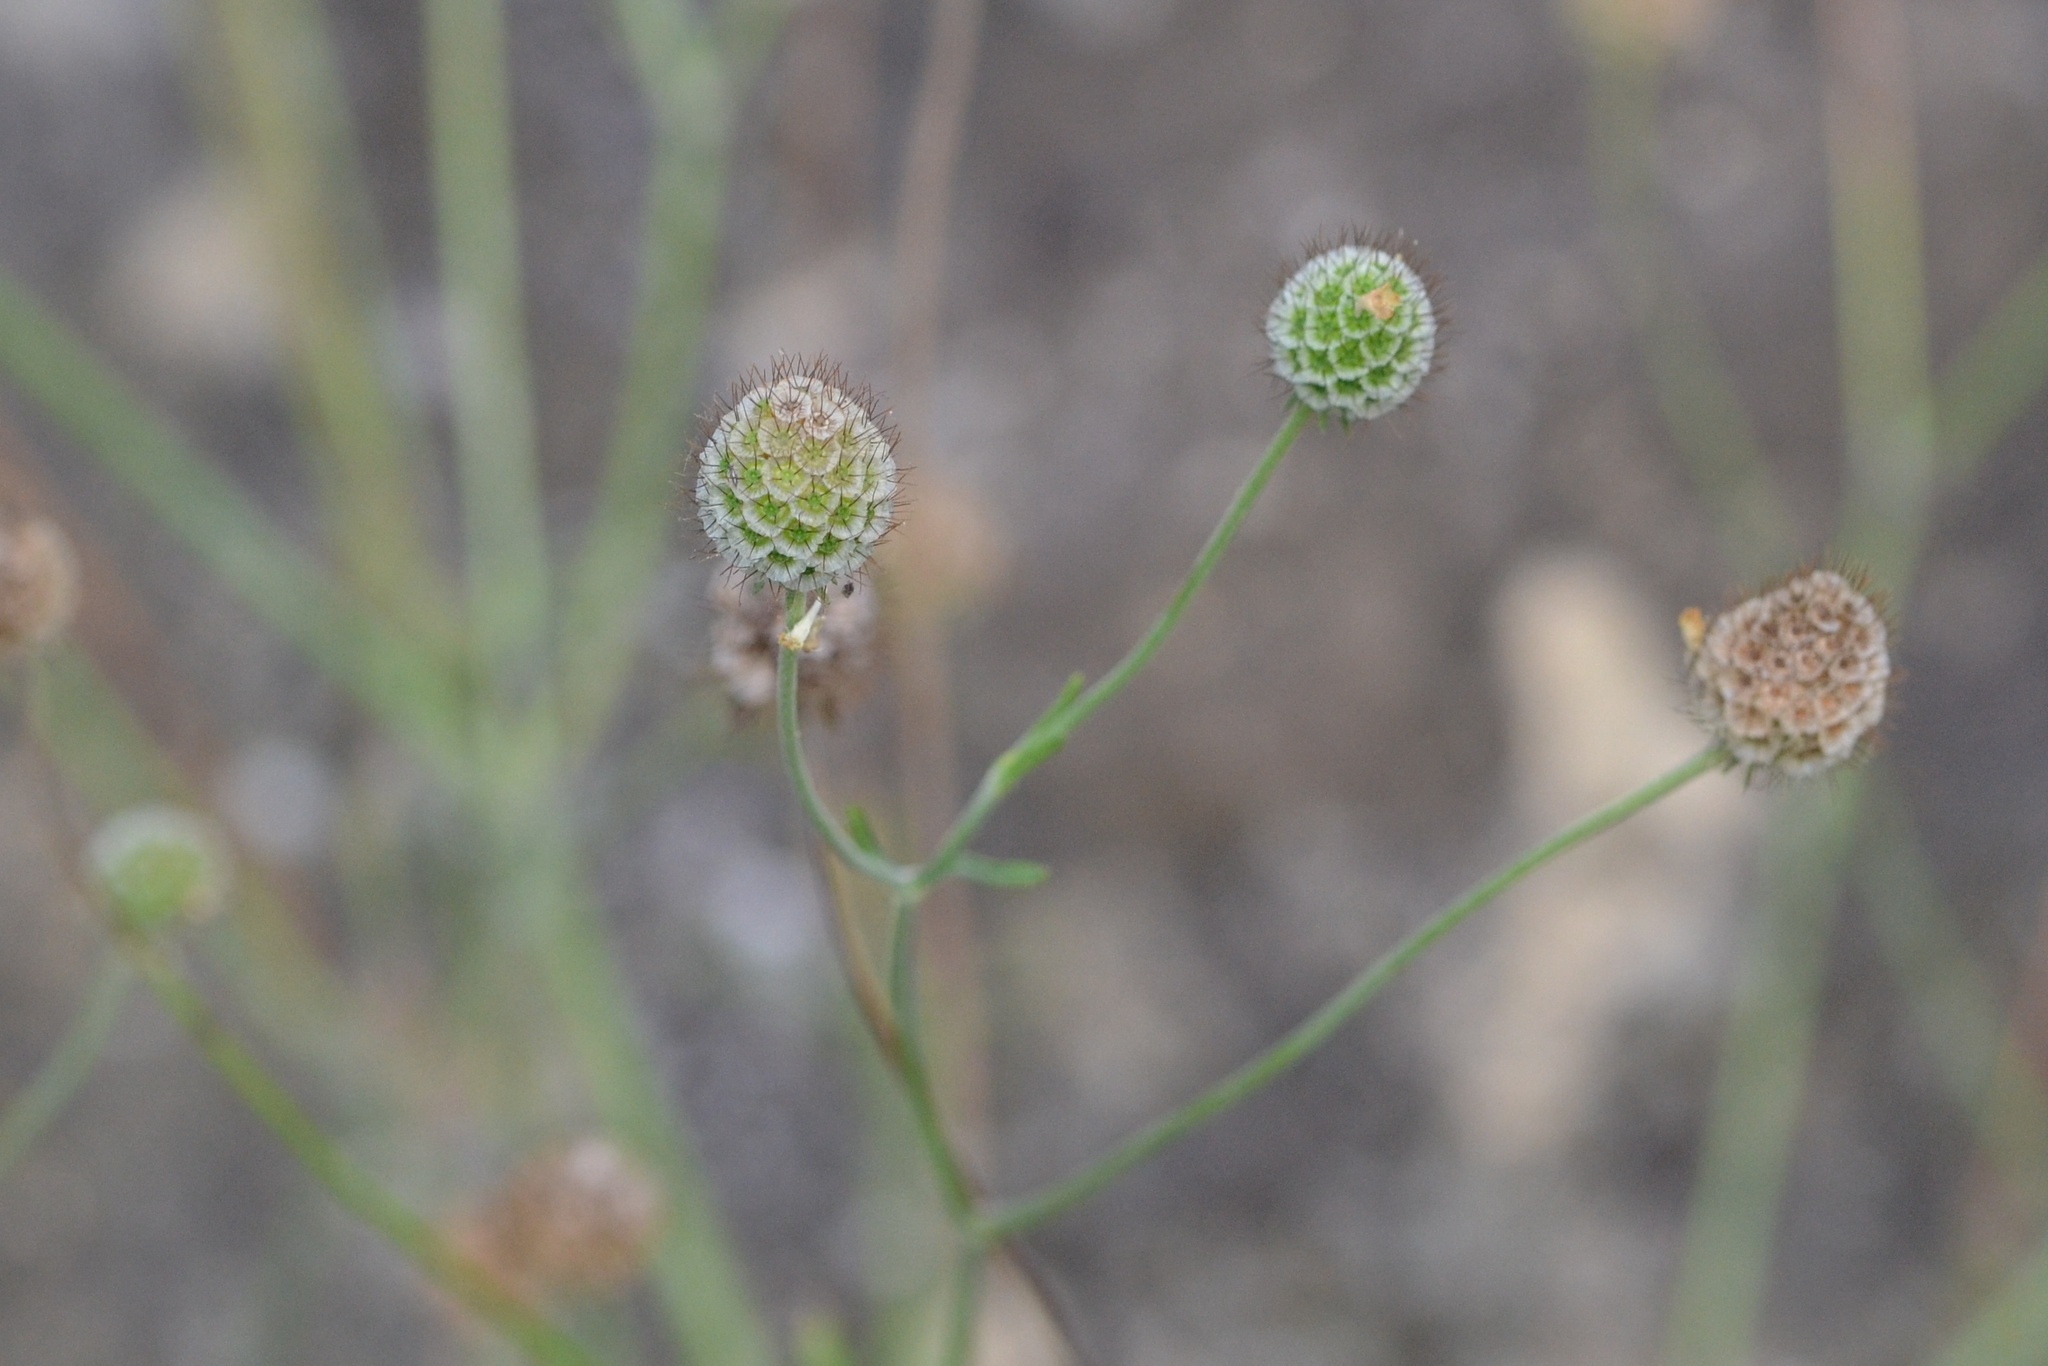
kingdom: Plantae
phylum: Tracheophyta
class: Magnoliopsida
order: Dipsacales
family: Caprifoliaceae
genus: Scabiosa
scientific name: Scabiosa ochroleuca
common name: Cream pincushions
